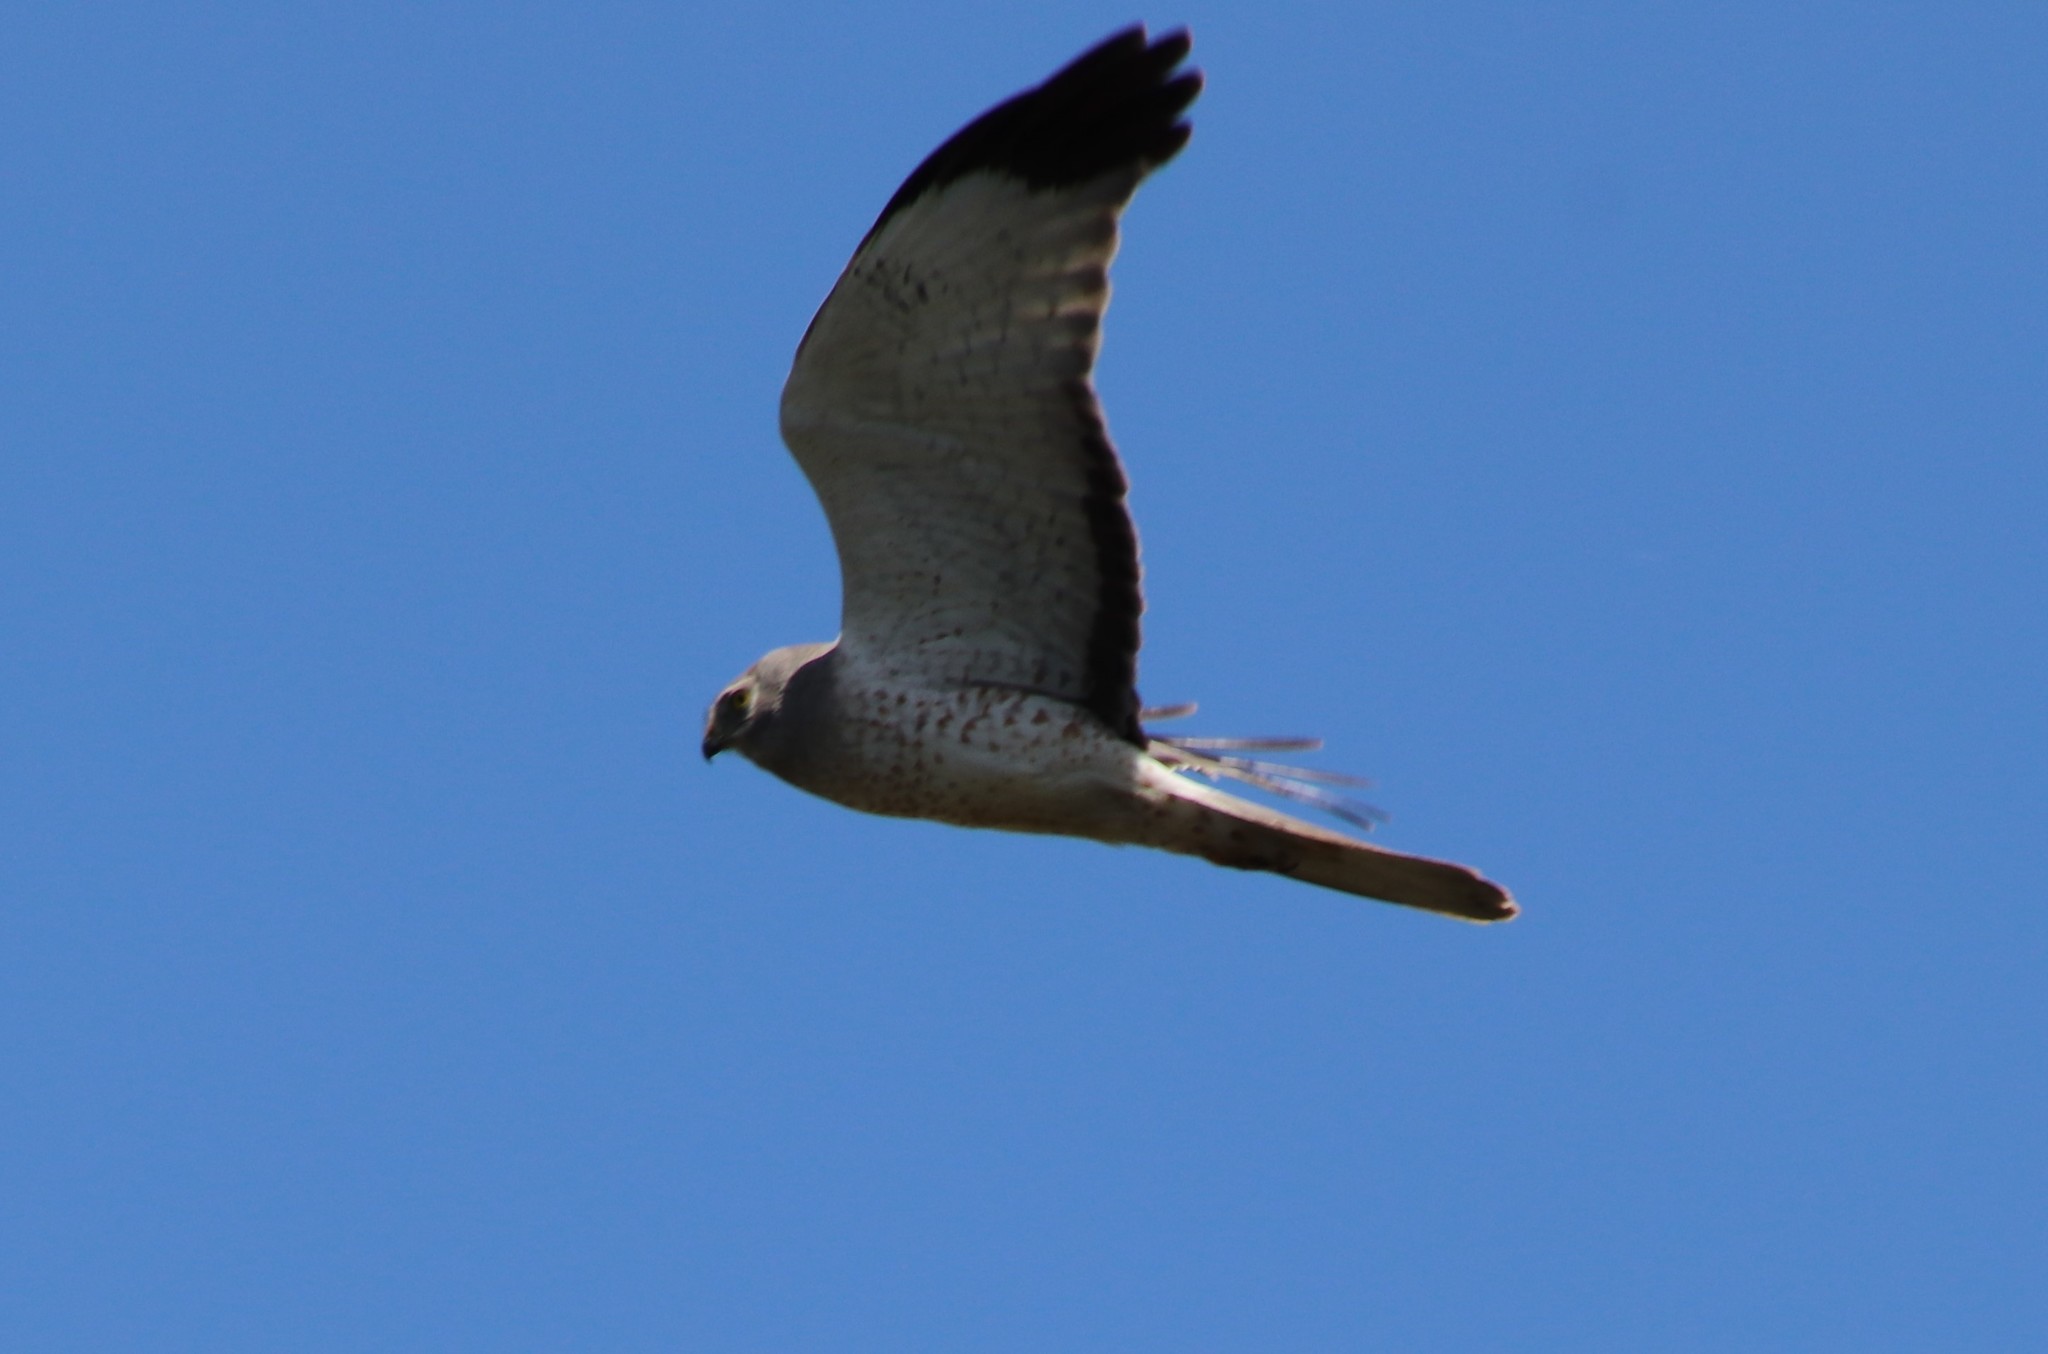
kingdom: Animalia
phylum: Chordata
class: Aves
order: Accipitriformes
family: Accipitridae
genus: Circus
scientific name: Circus cyaneus
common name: Hen harrier
